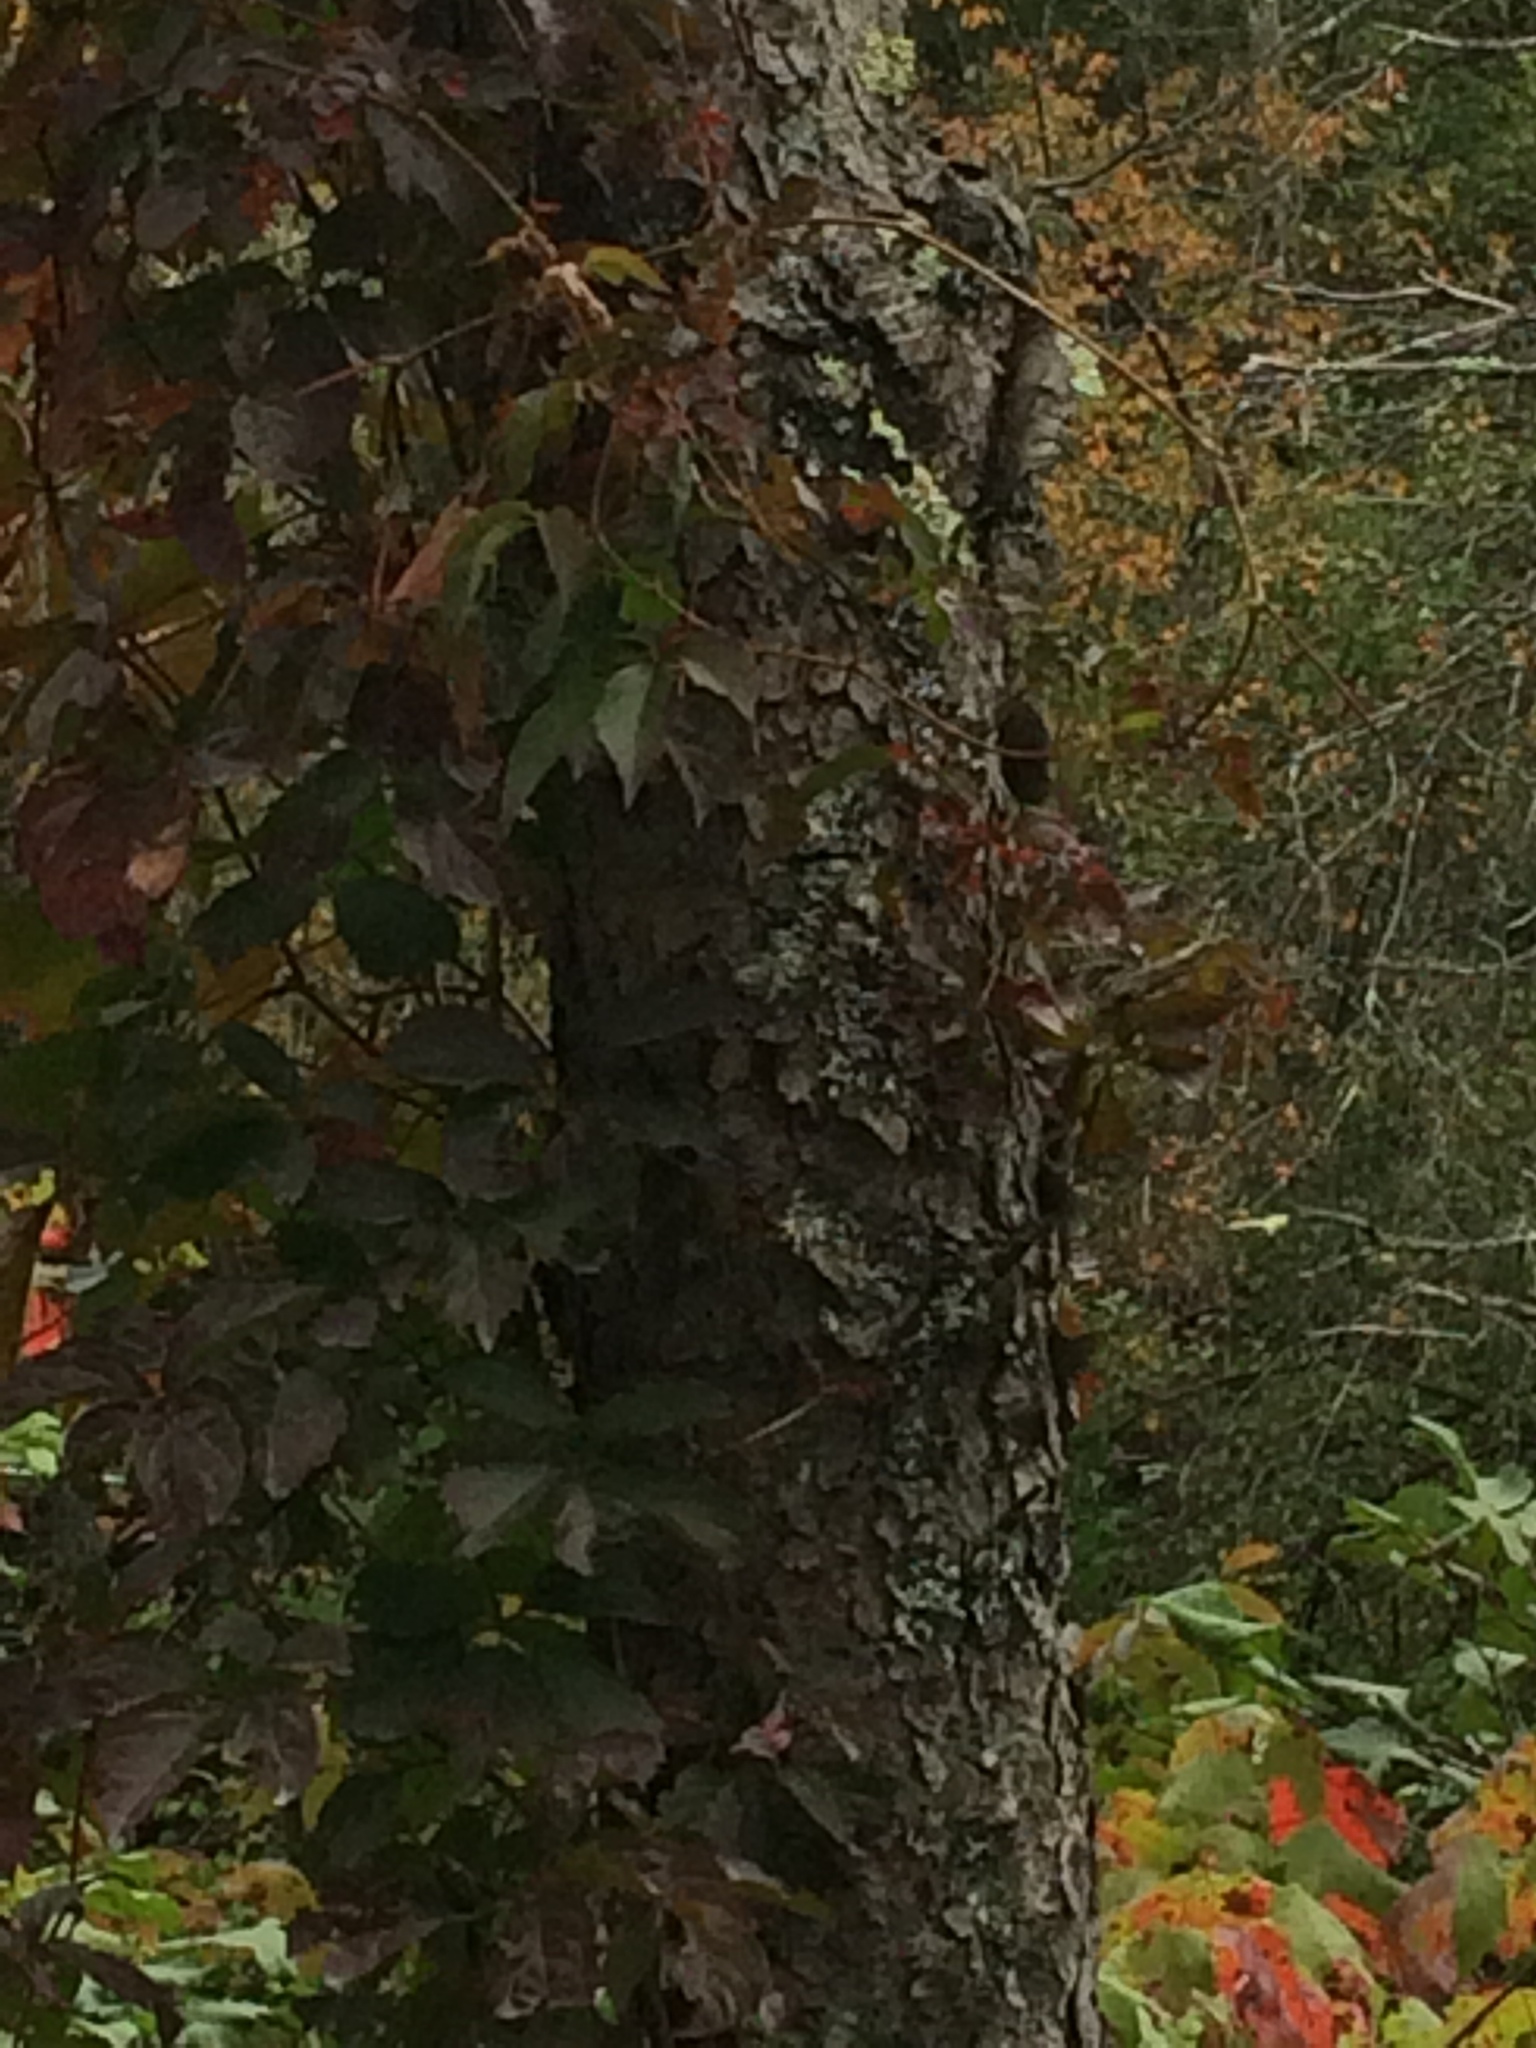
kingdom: Plantae
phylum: Tracheophyta
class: Magnoliopsida
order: Rosales
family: Rosaceae
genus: Prunus
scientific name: Prunus serotina
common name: Black cherry
